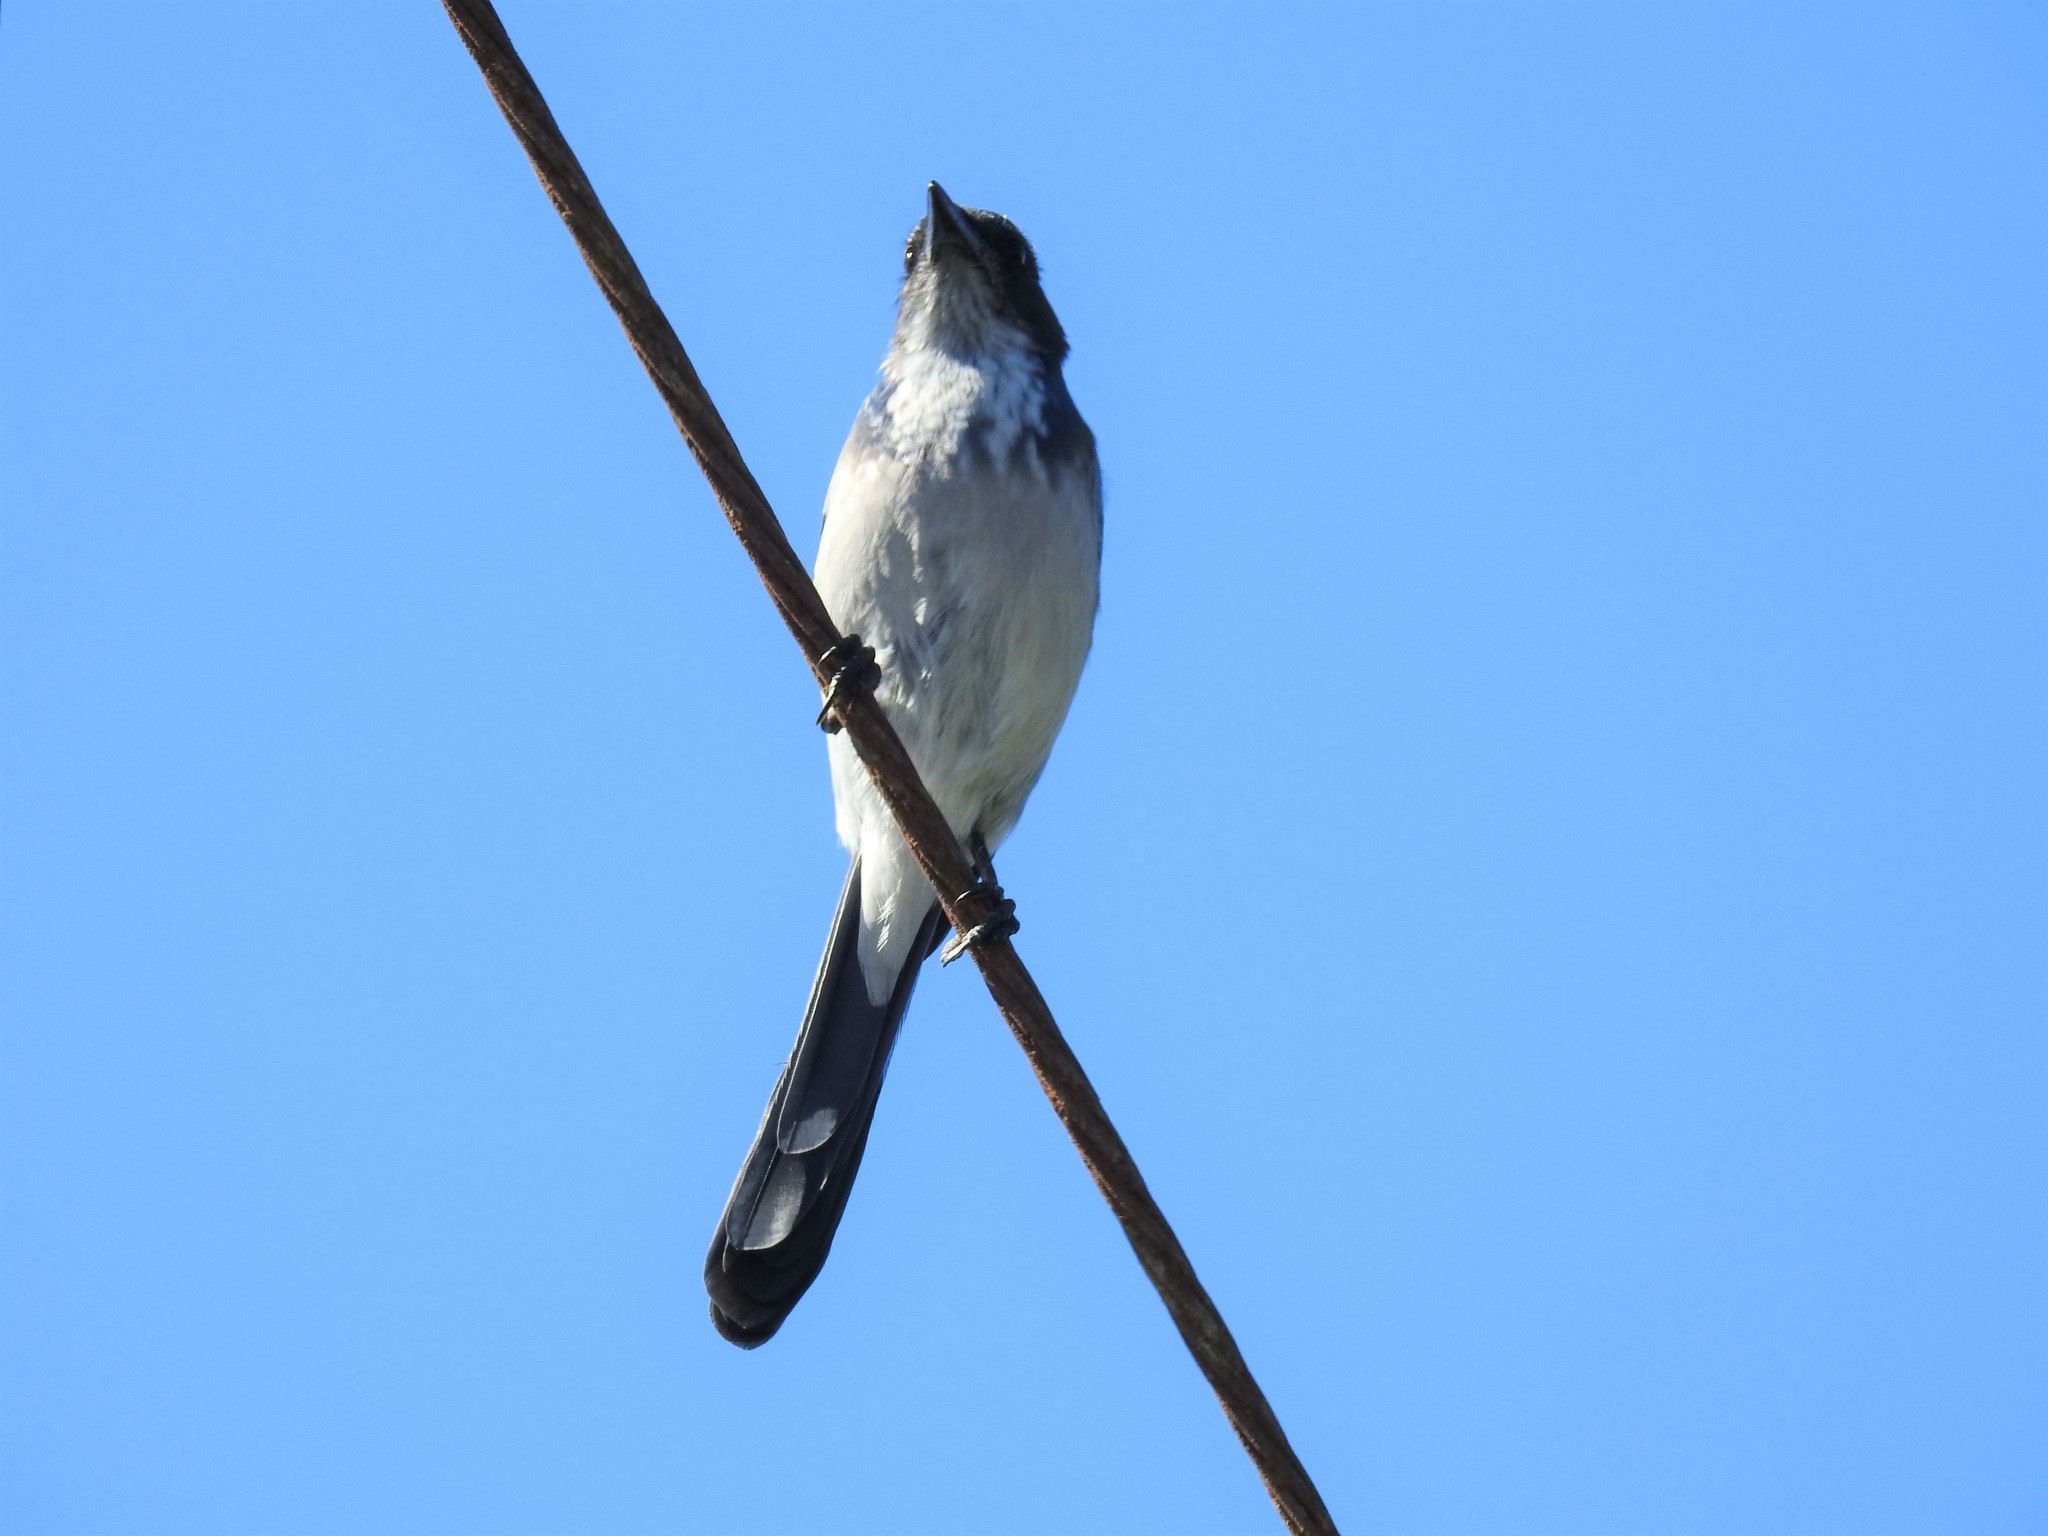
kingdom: Animalia
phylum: Chordata
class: Aves
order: Passeriformes
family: Corvidae
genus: Aphelocoma
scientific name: Aphelocoma californica
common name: California scrub-jay
